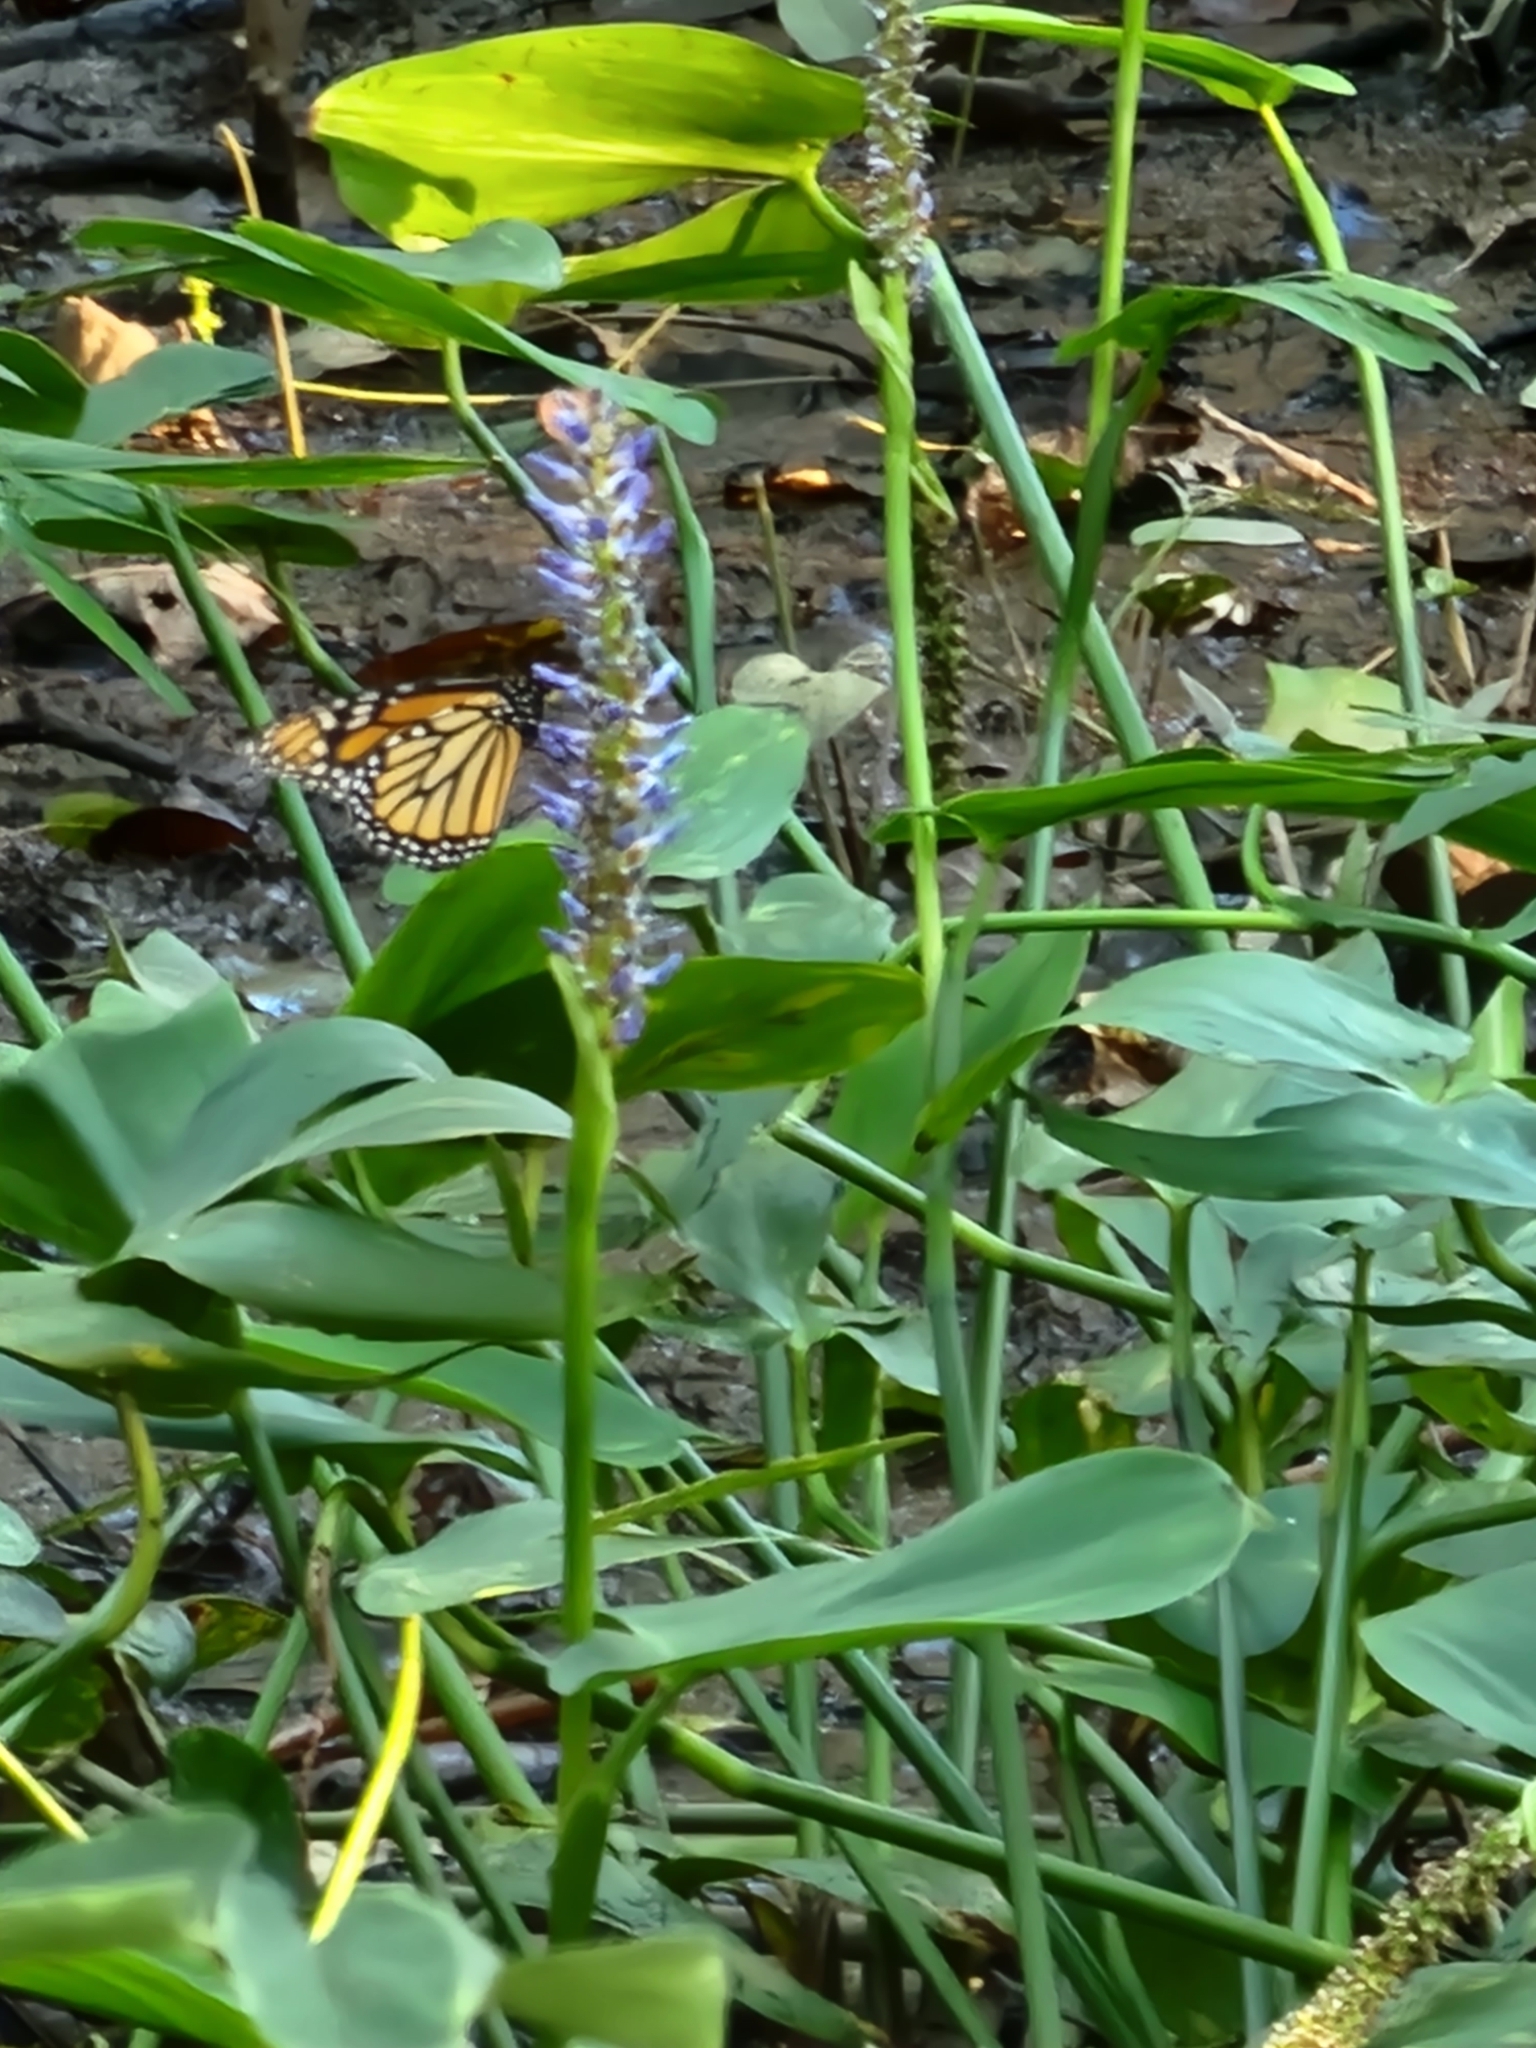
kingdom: Animalia
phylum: Arthropoda
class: Insecta
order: Lepidoptera
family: Nymphalidae
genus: Danaus
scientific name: Danaus plexippus
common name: Monarch
